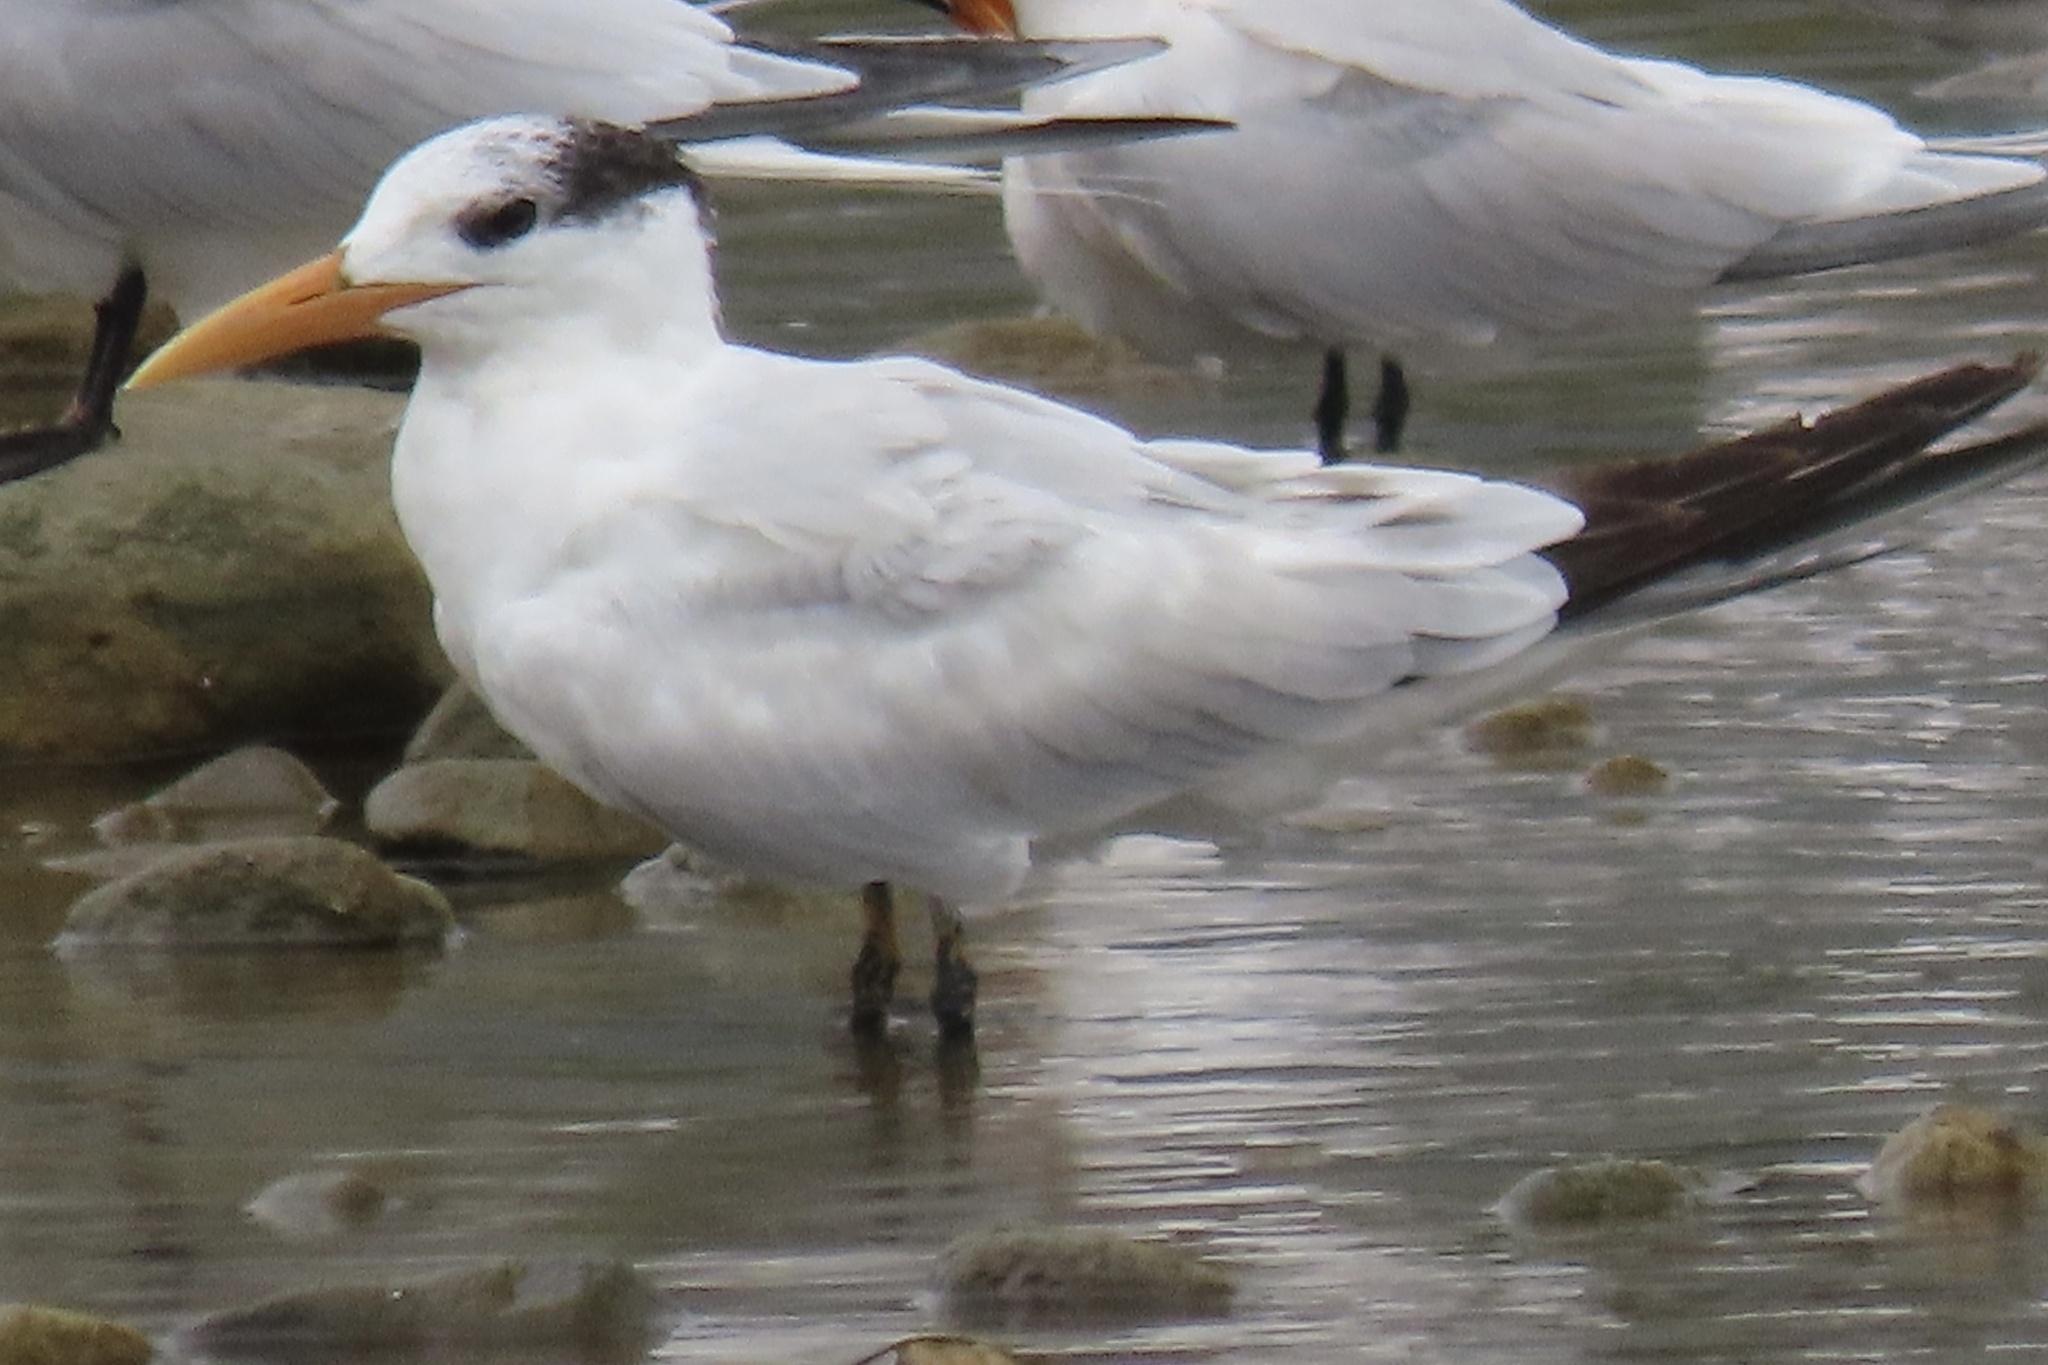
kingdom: Animalia
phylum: Chordata
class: Aves
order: Charadriiformes
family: Laridae
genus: Thalasseus
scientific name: Thalasseus maximus
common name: Royal tern
